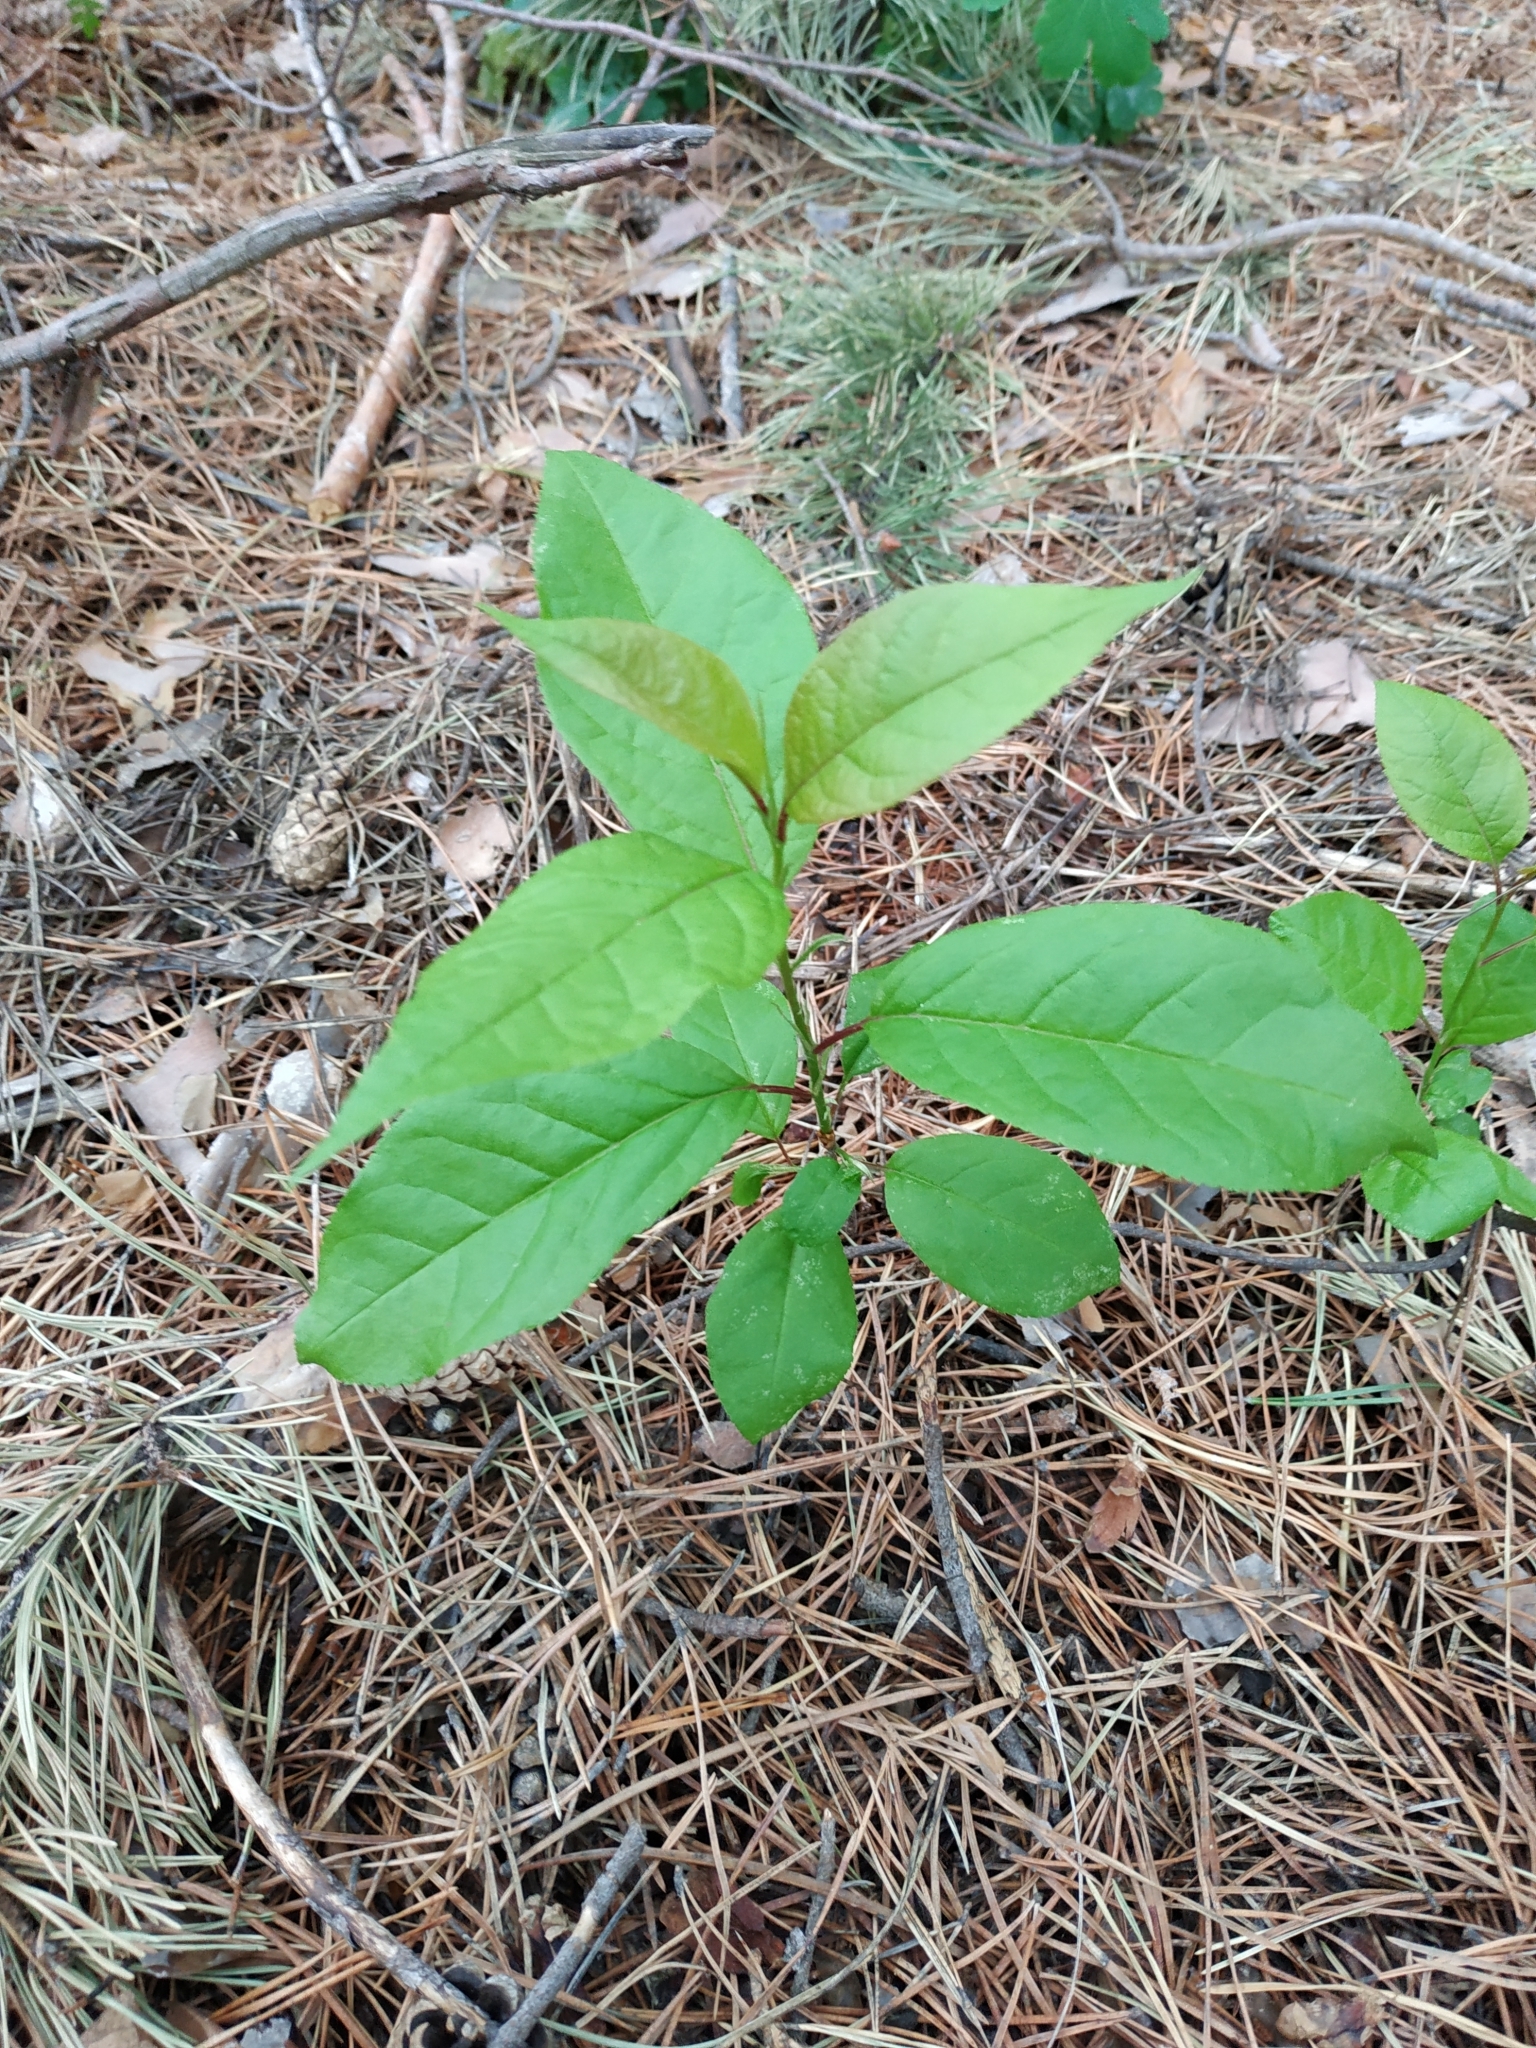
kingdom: Plantae
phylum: Tracheophyta
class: Magnoliopsida
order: Rosales
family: Rosaceae
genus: Prunus
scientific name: Prunus padus
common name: Bird cherry
